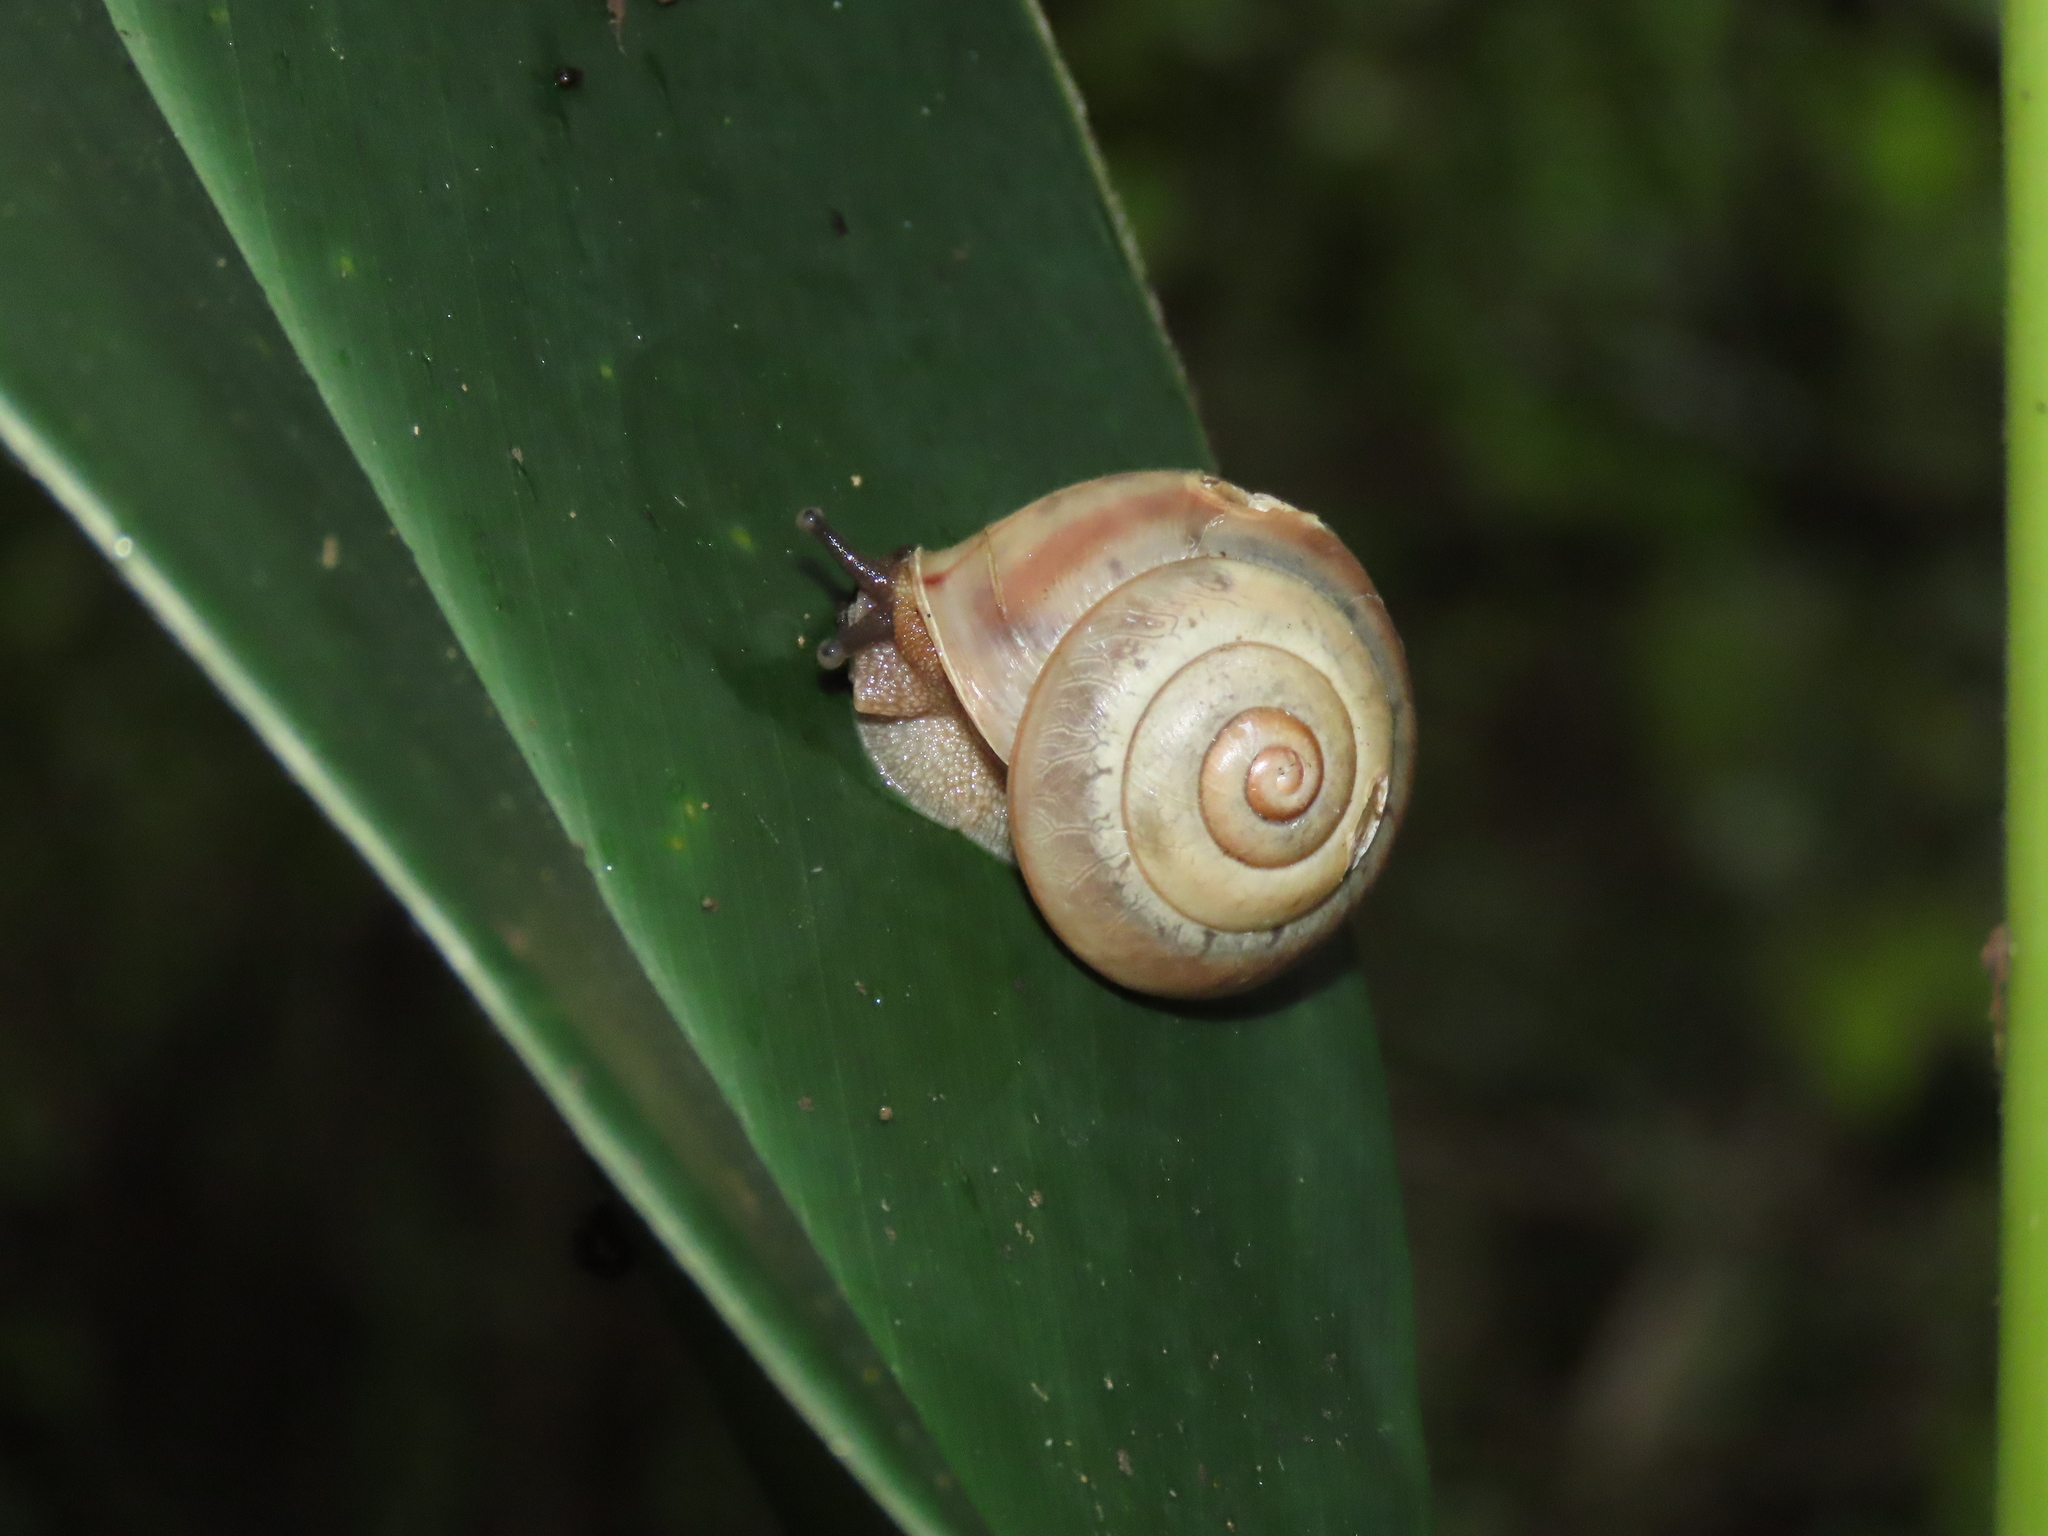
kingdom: Animalia
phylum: Mollusca
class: Gastropoda
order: Stylommatophora
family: Camaenidae
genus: Satsuma
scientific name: Satsuma wenshini
